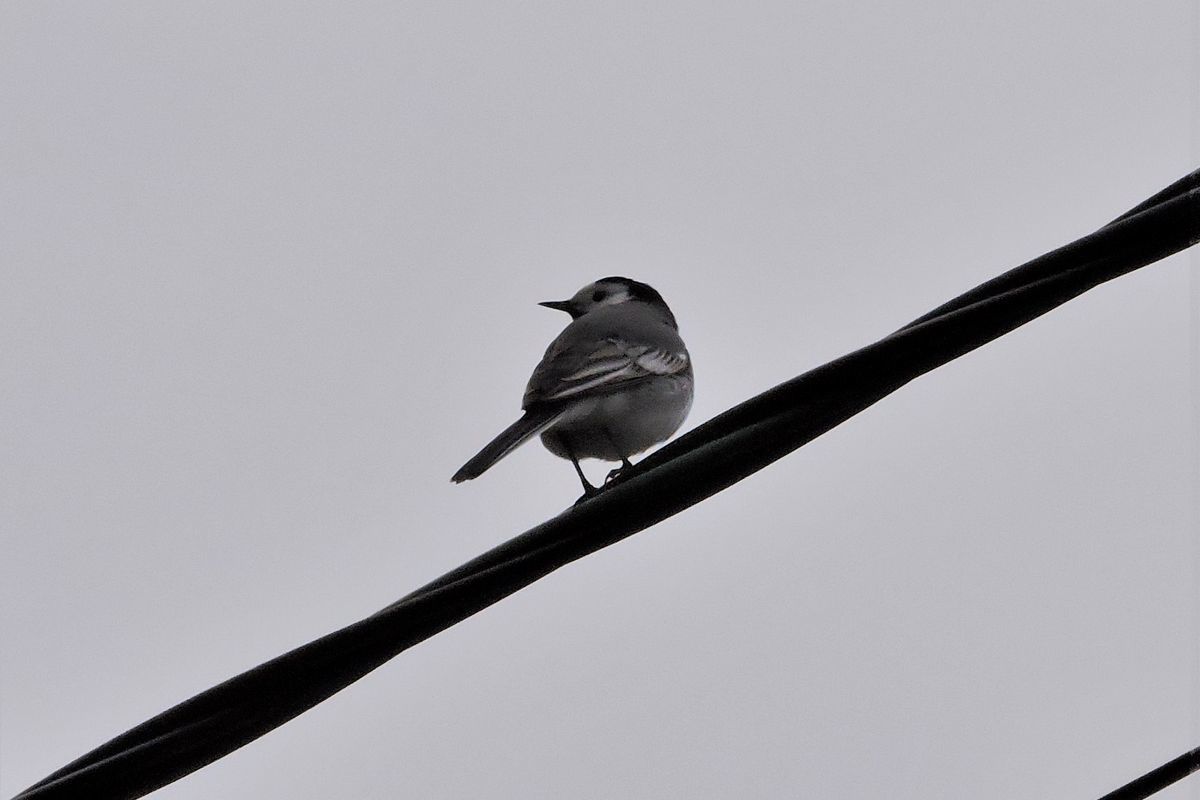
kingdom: Animalia
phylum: Chordata
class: Aves
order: Passeriformes
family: Motacillidae
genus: Motacilla
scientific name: Motacilla alba
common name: White wagtail
